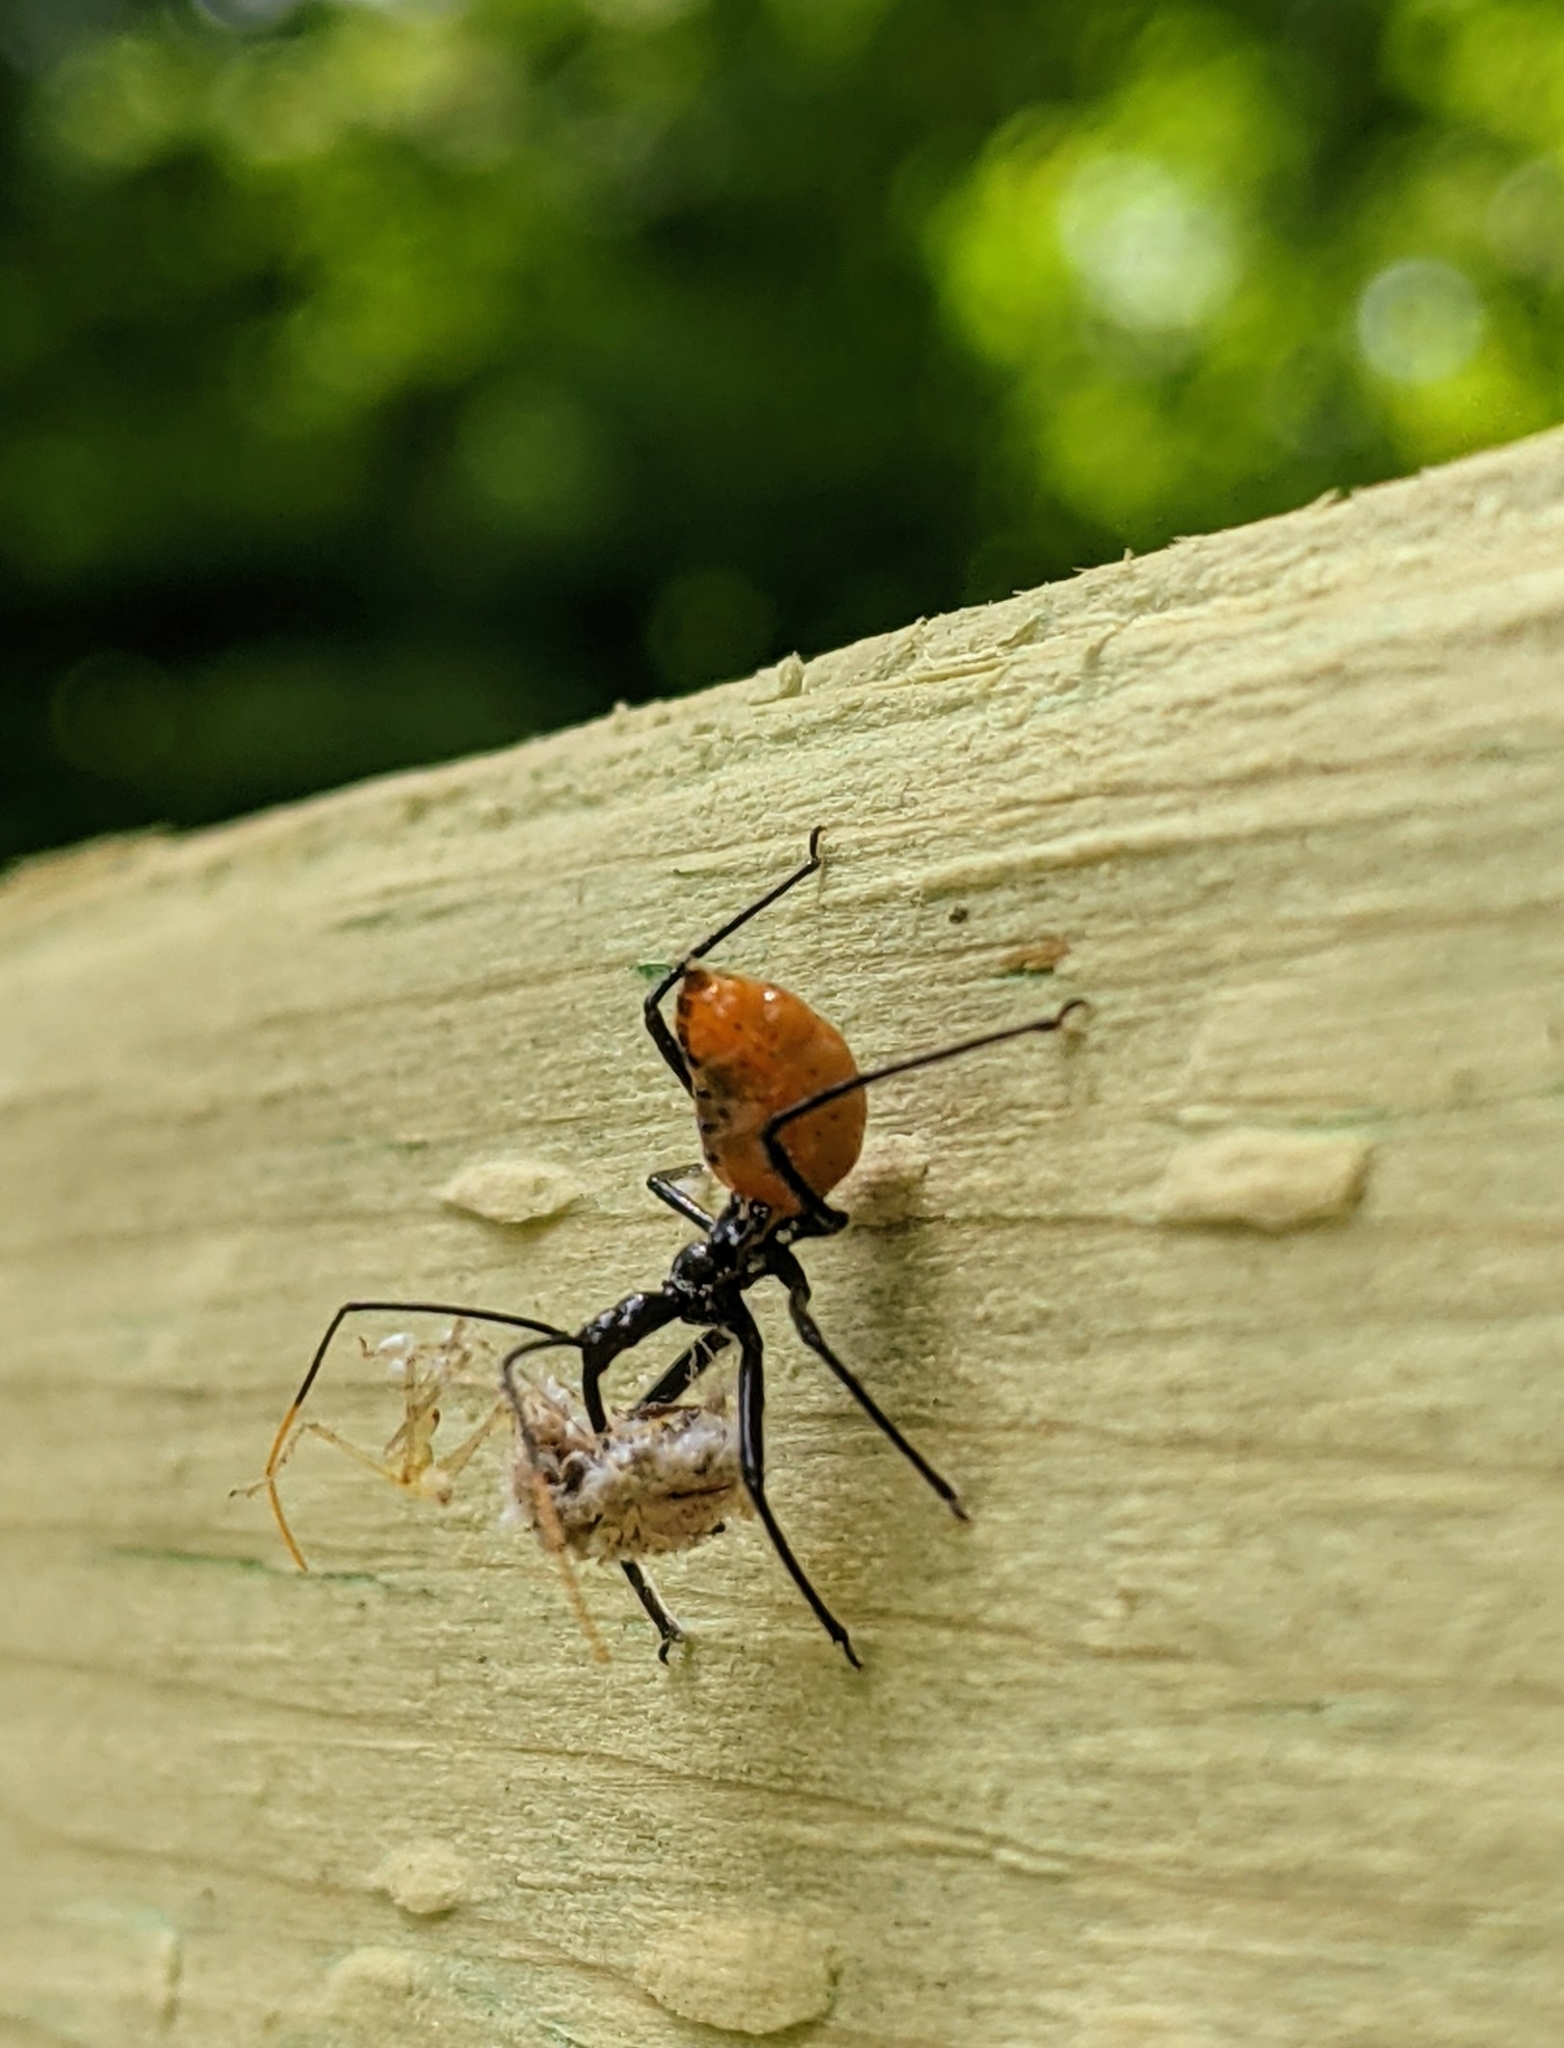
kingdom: Animalia
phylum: Arthropoda
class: Insecta
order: Hemiptera
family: Reduviidae
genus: Arilus
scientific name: Arilus cristatus
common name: North american wheel bug
